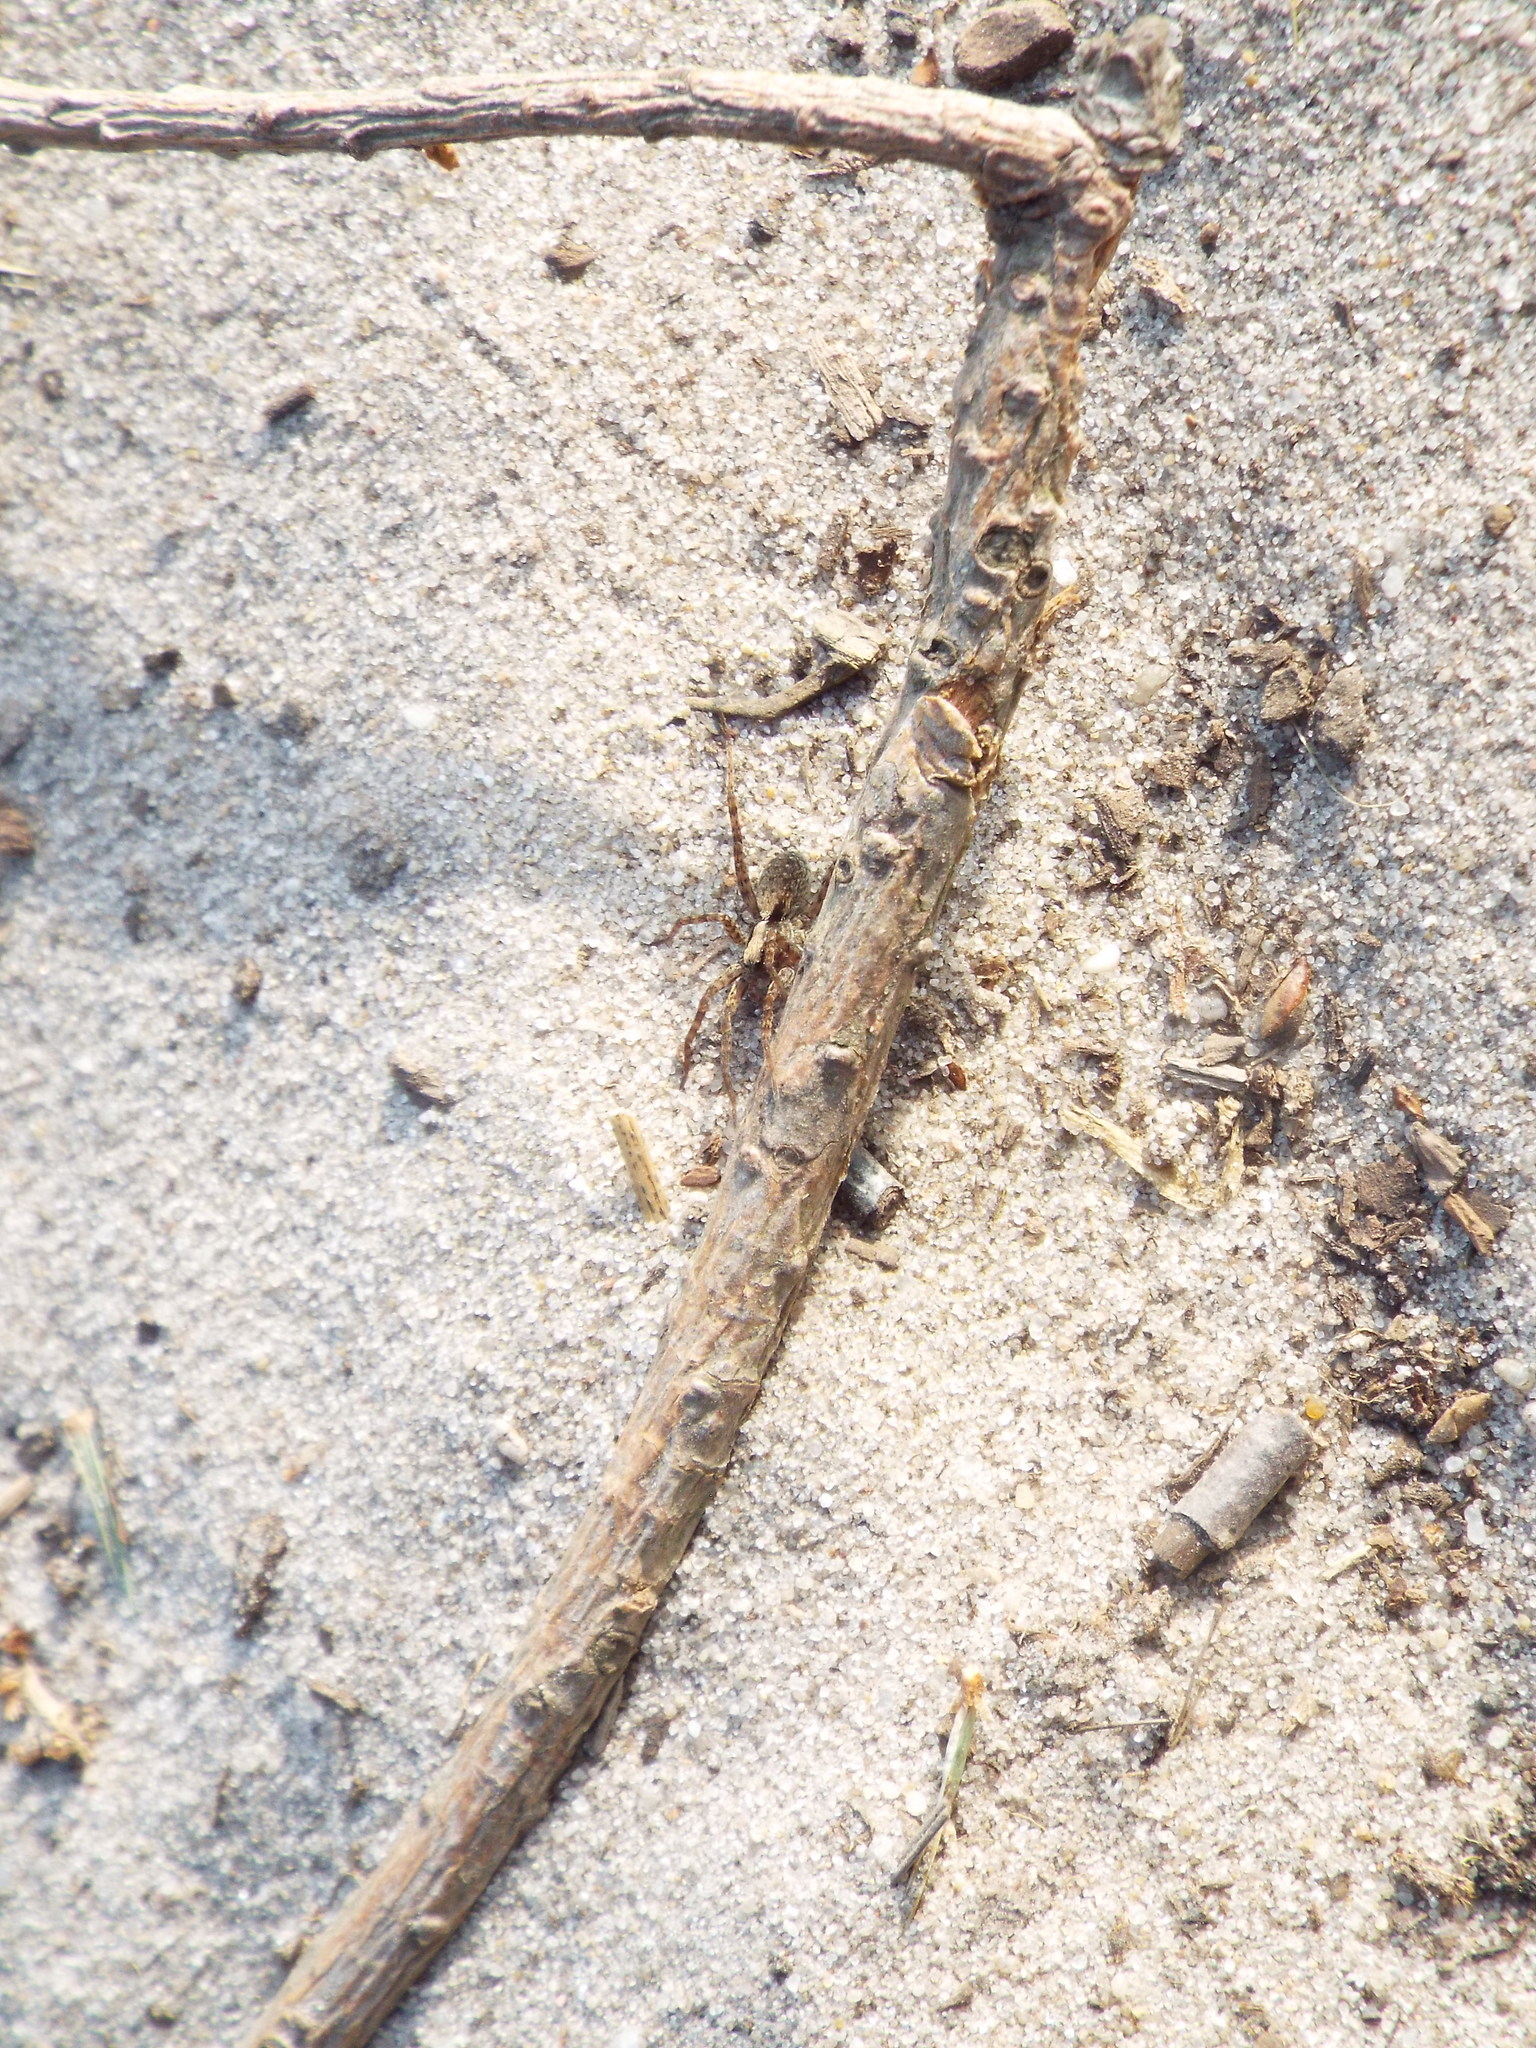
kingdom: Animalia
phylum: Arthropoda
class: Arachnida
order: Araneae
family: Lycosidae
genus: Pardosa
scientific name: Pardosa
